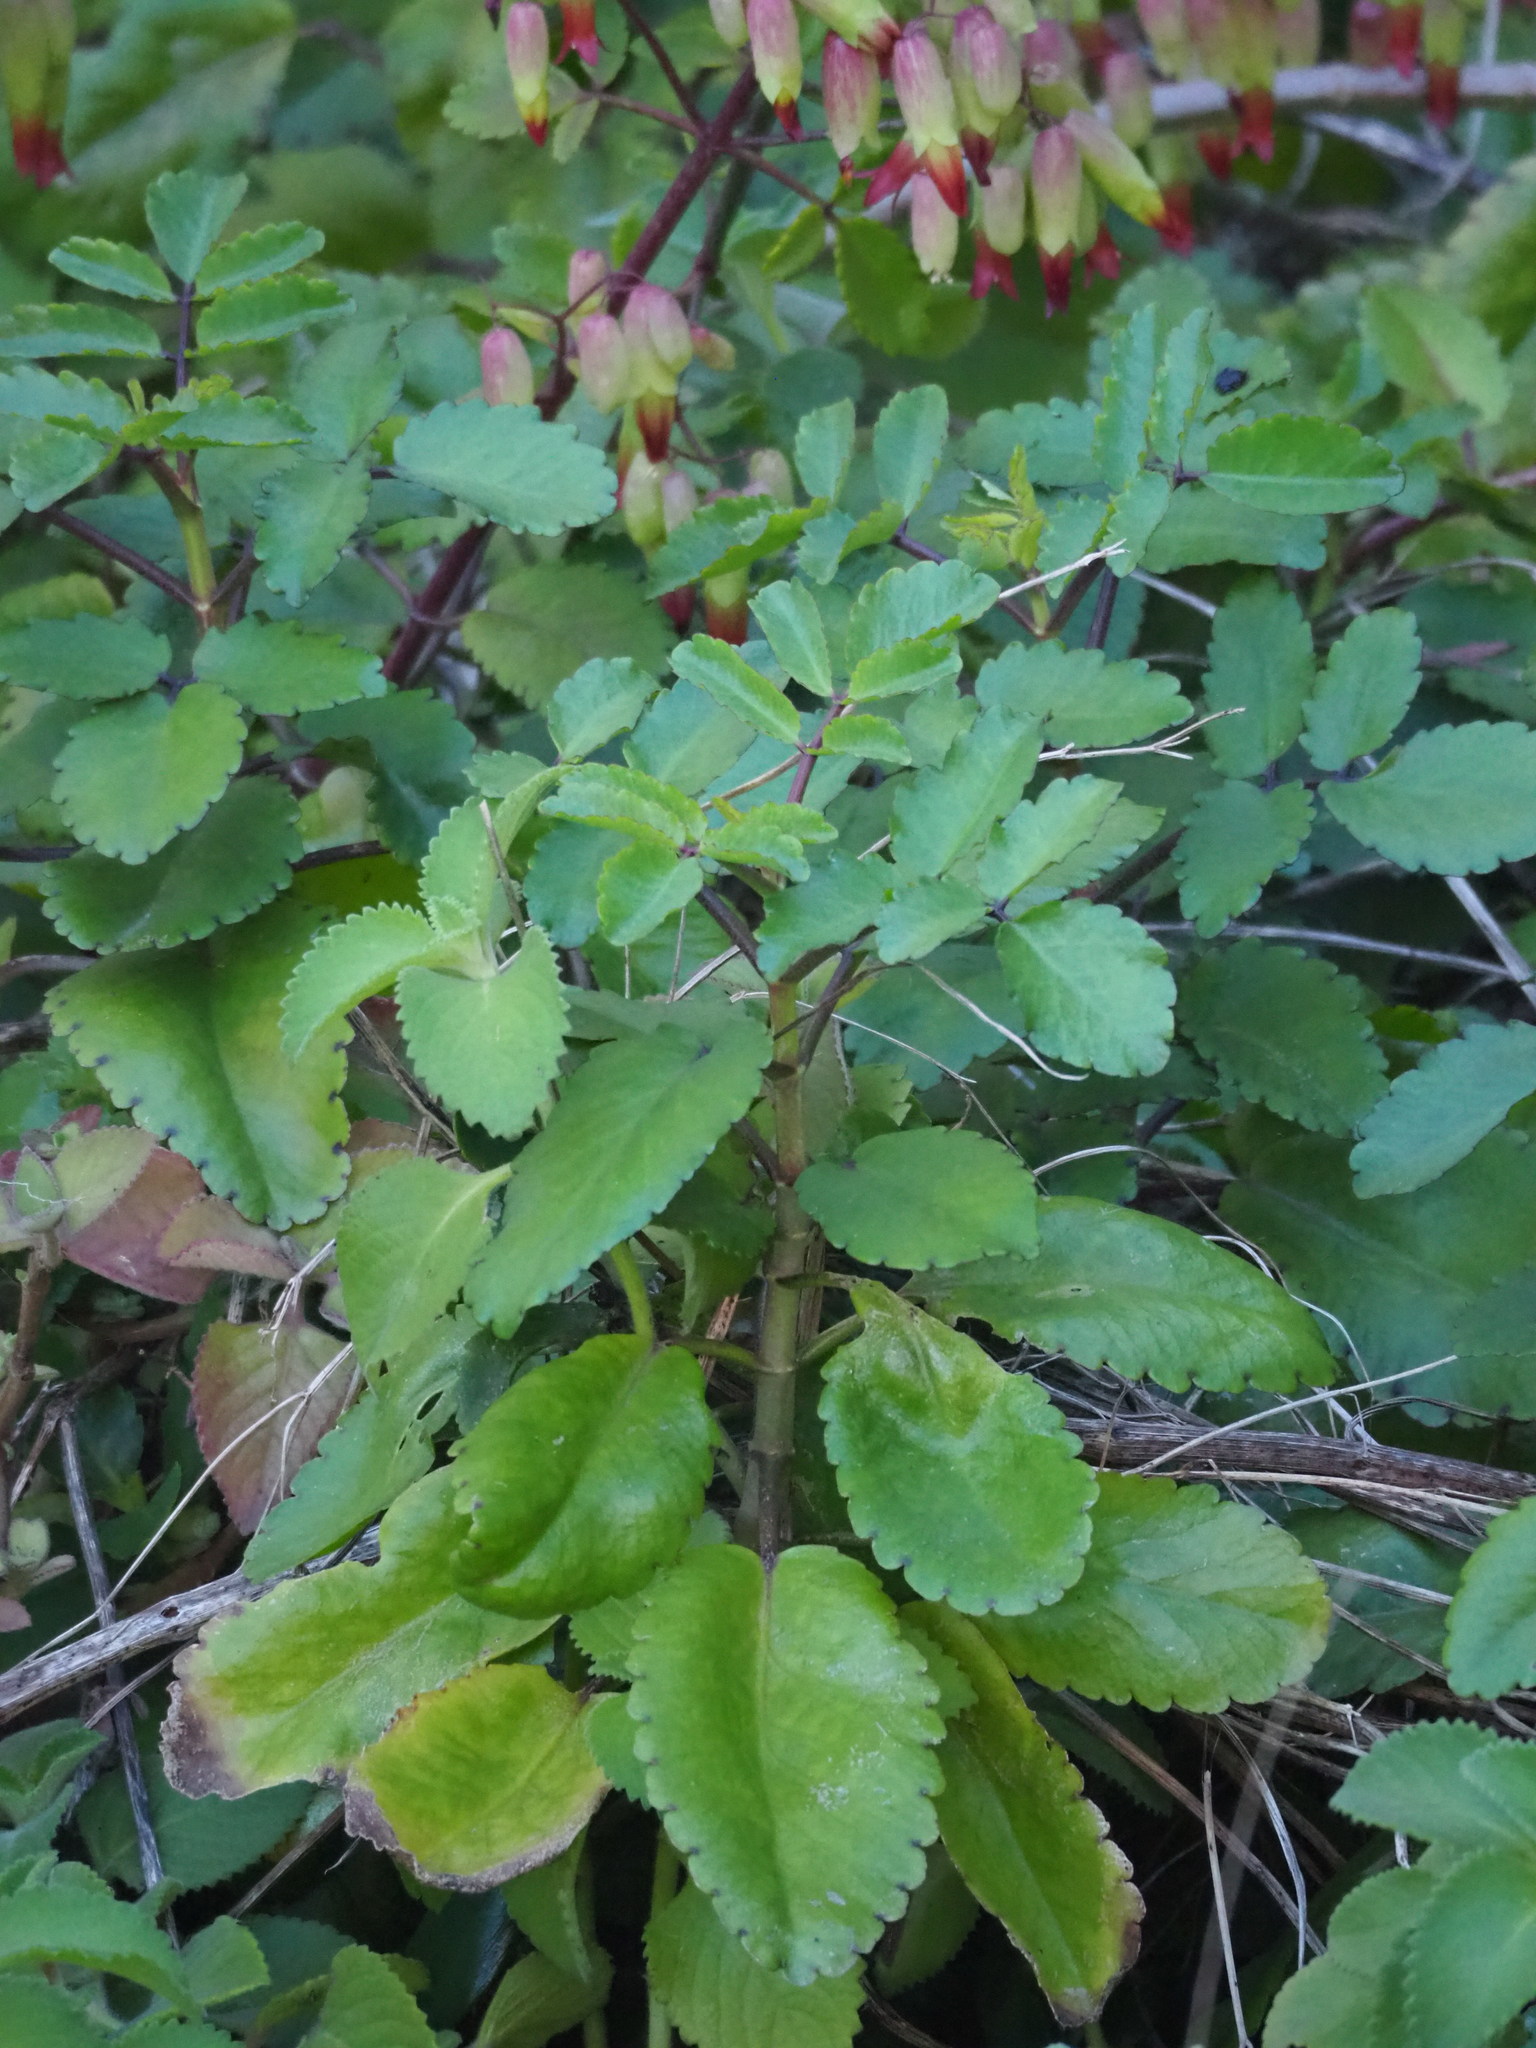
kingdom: Plantae
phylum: Tracheophyta
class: Magnoliopsida
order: Saxifragales
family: Crassulaceae
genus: Kalanchoe
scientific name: Kalanchoe pinnata
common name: Cathedral bells
